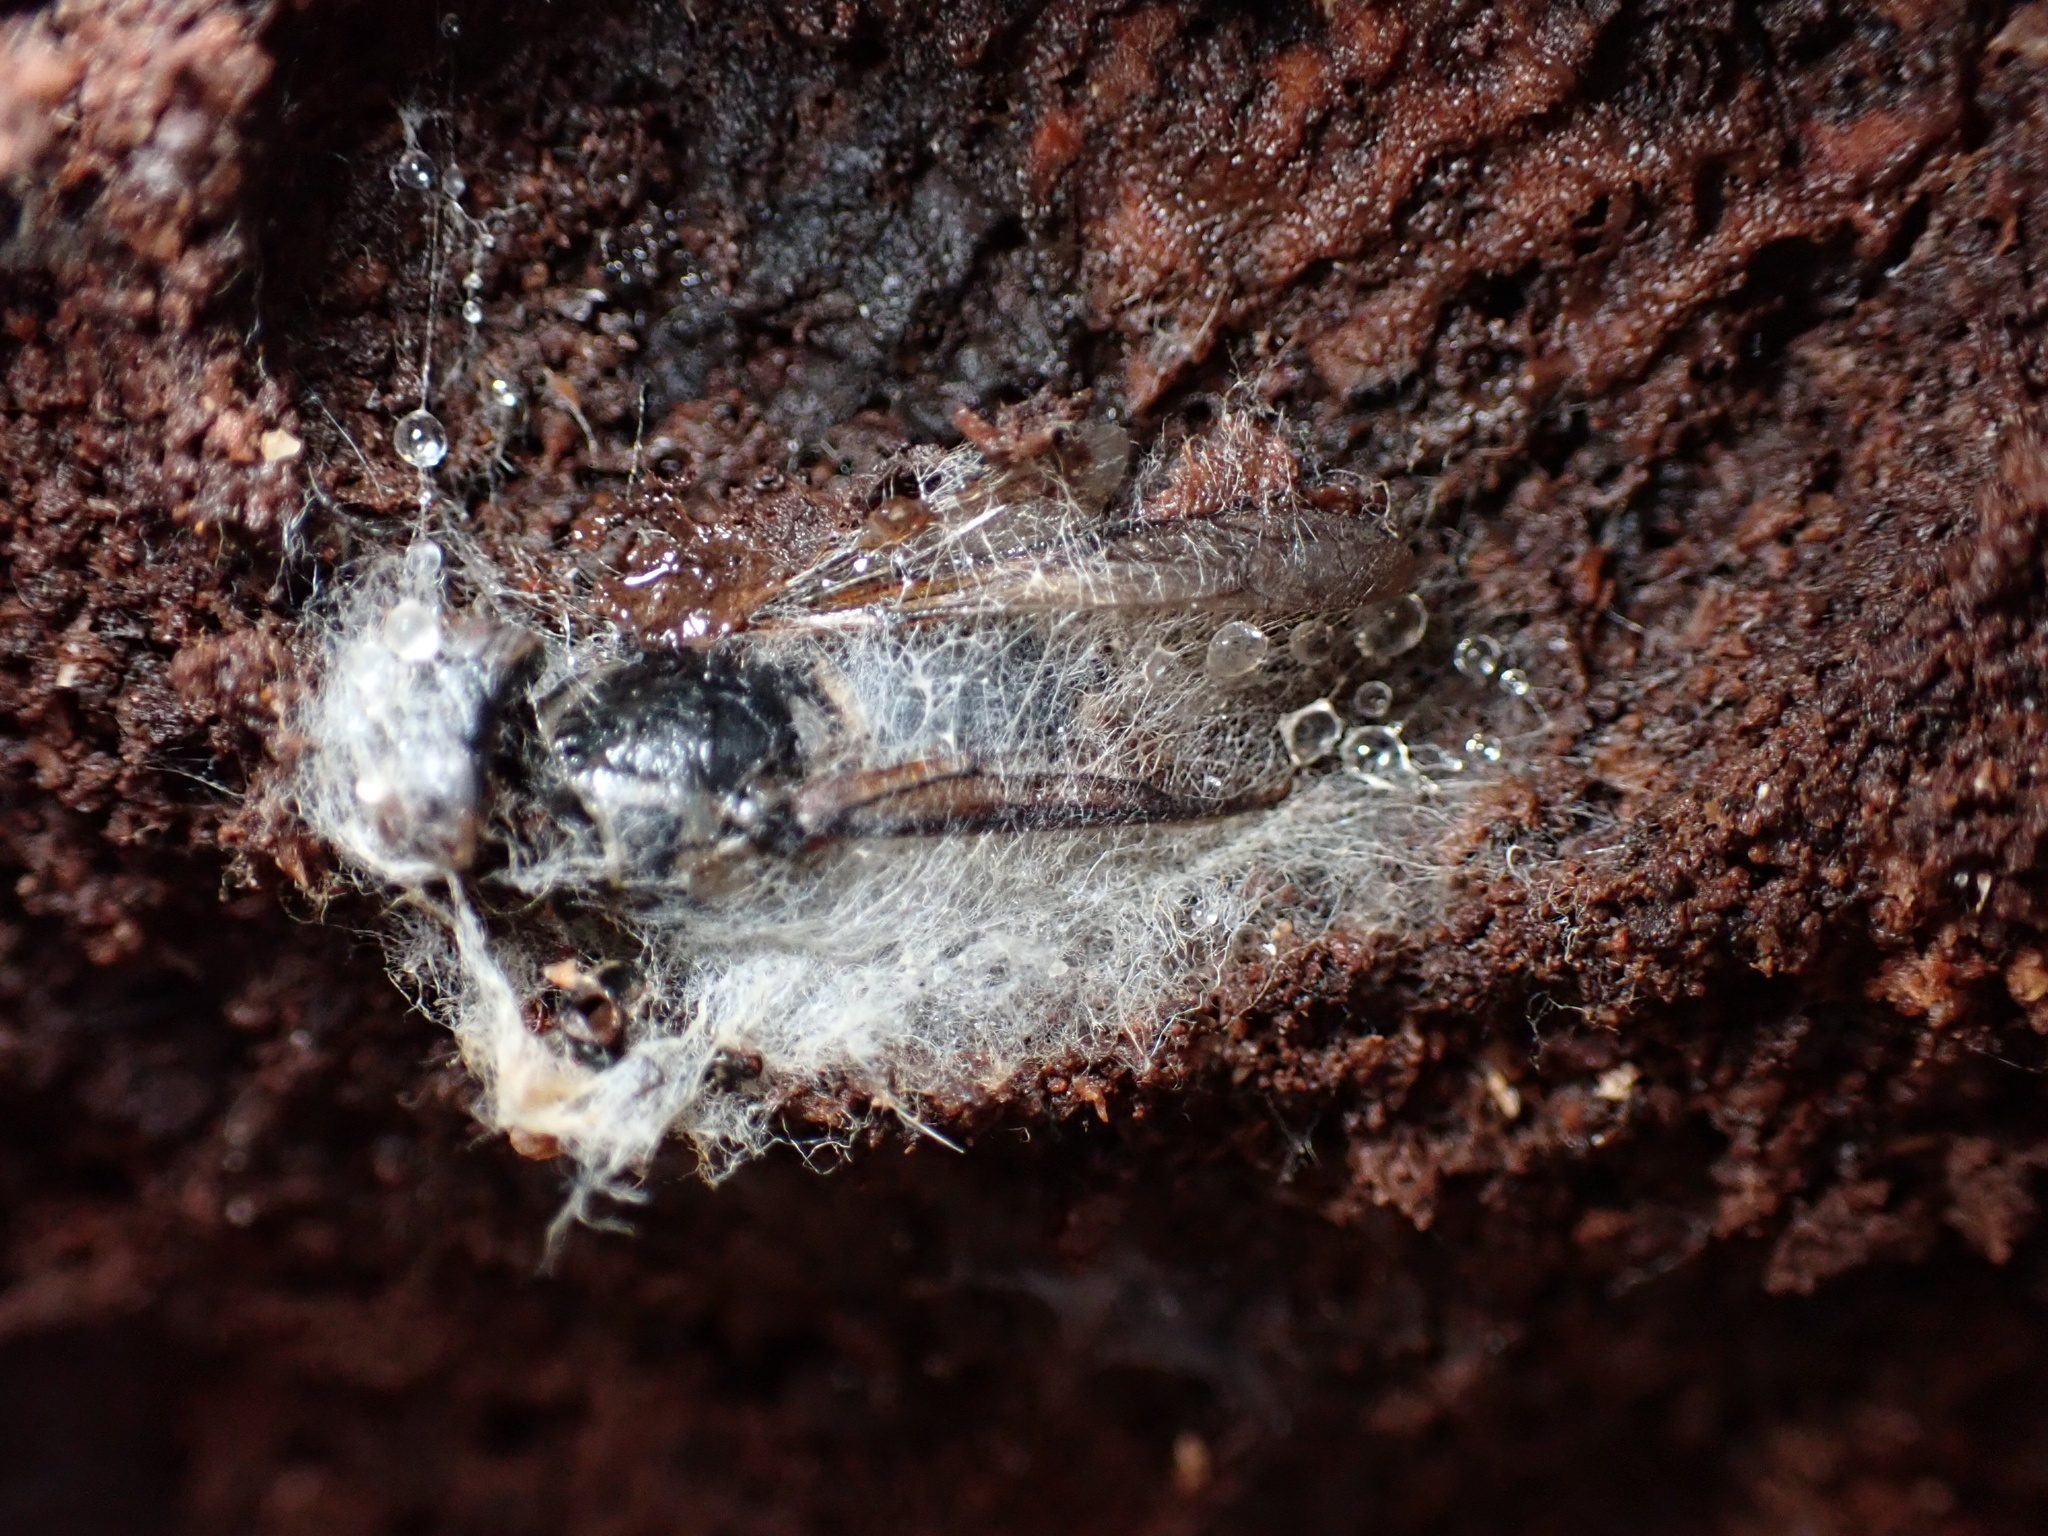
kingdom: Animalia
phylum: Arthropoda
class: Insecta
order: Hymenoptera
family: Vespidae
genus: Dolichovespula
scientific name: Dolichovespula maculata
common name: Bald-faced hornet
